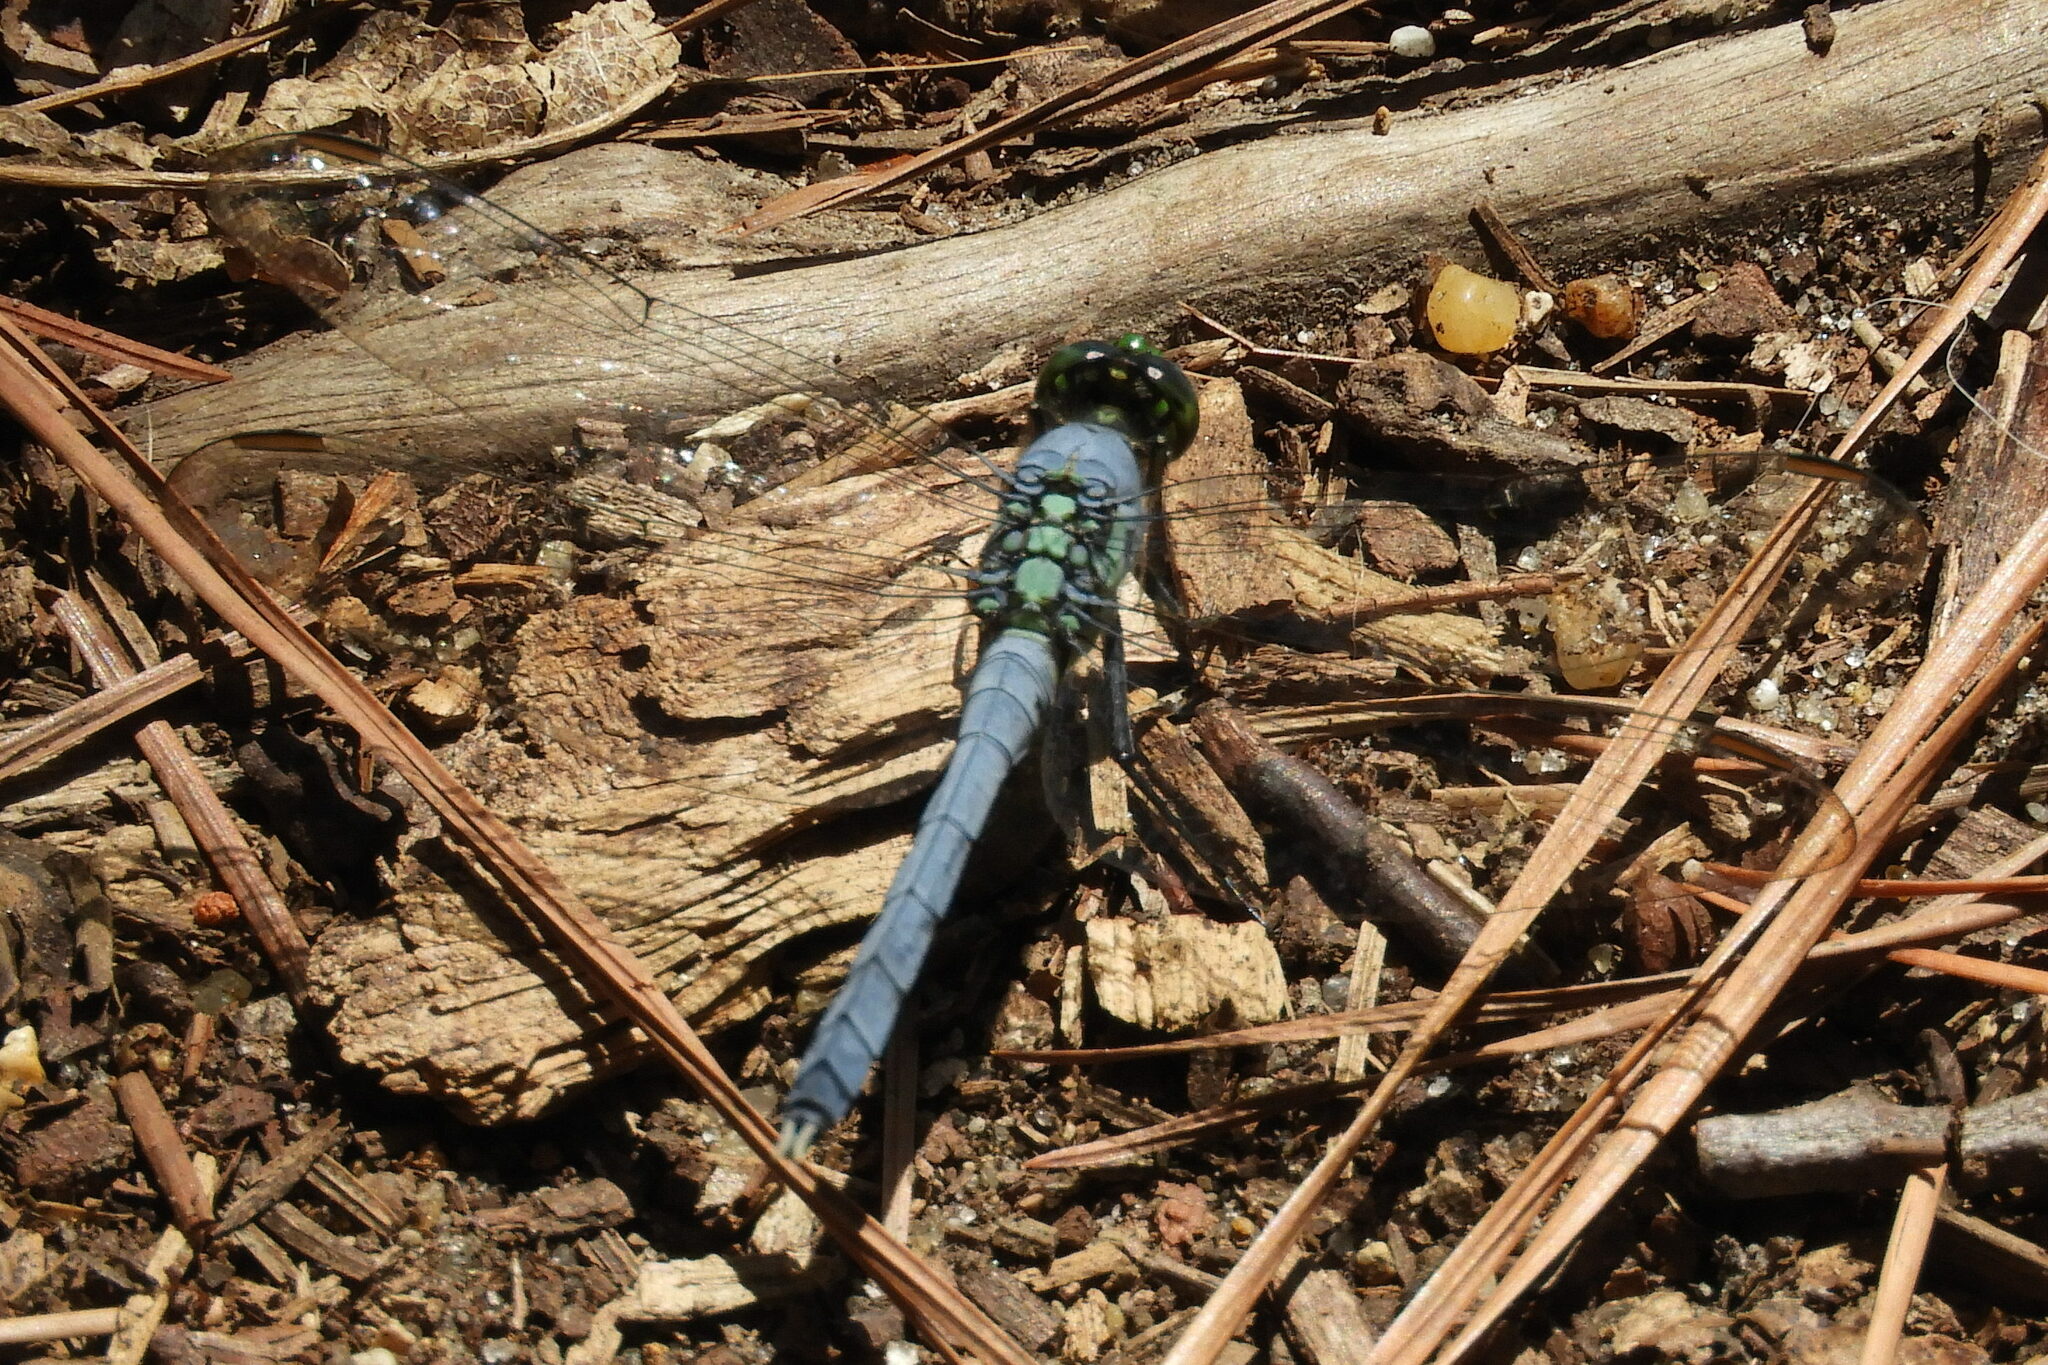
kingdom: Animalia
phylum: Arthropoda
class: Insecta
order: Odonata
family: Libellulidae
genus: Erythemis
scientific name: Erythemis simplicicollis
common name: Eastern pondhawk
